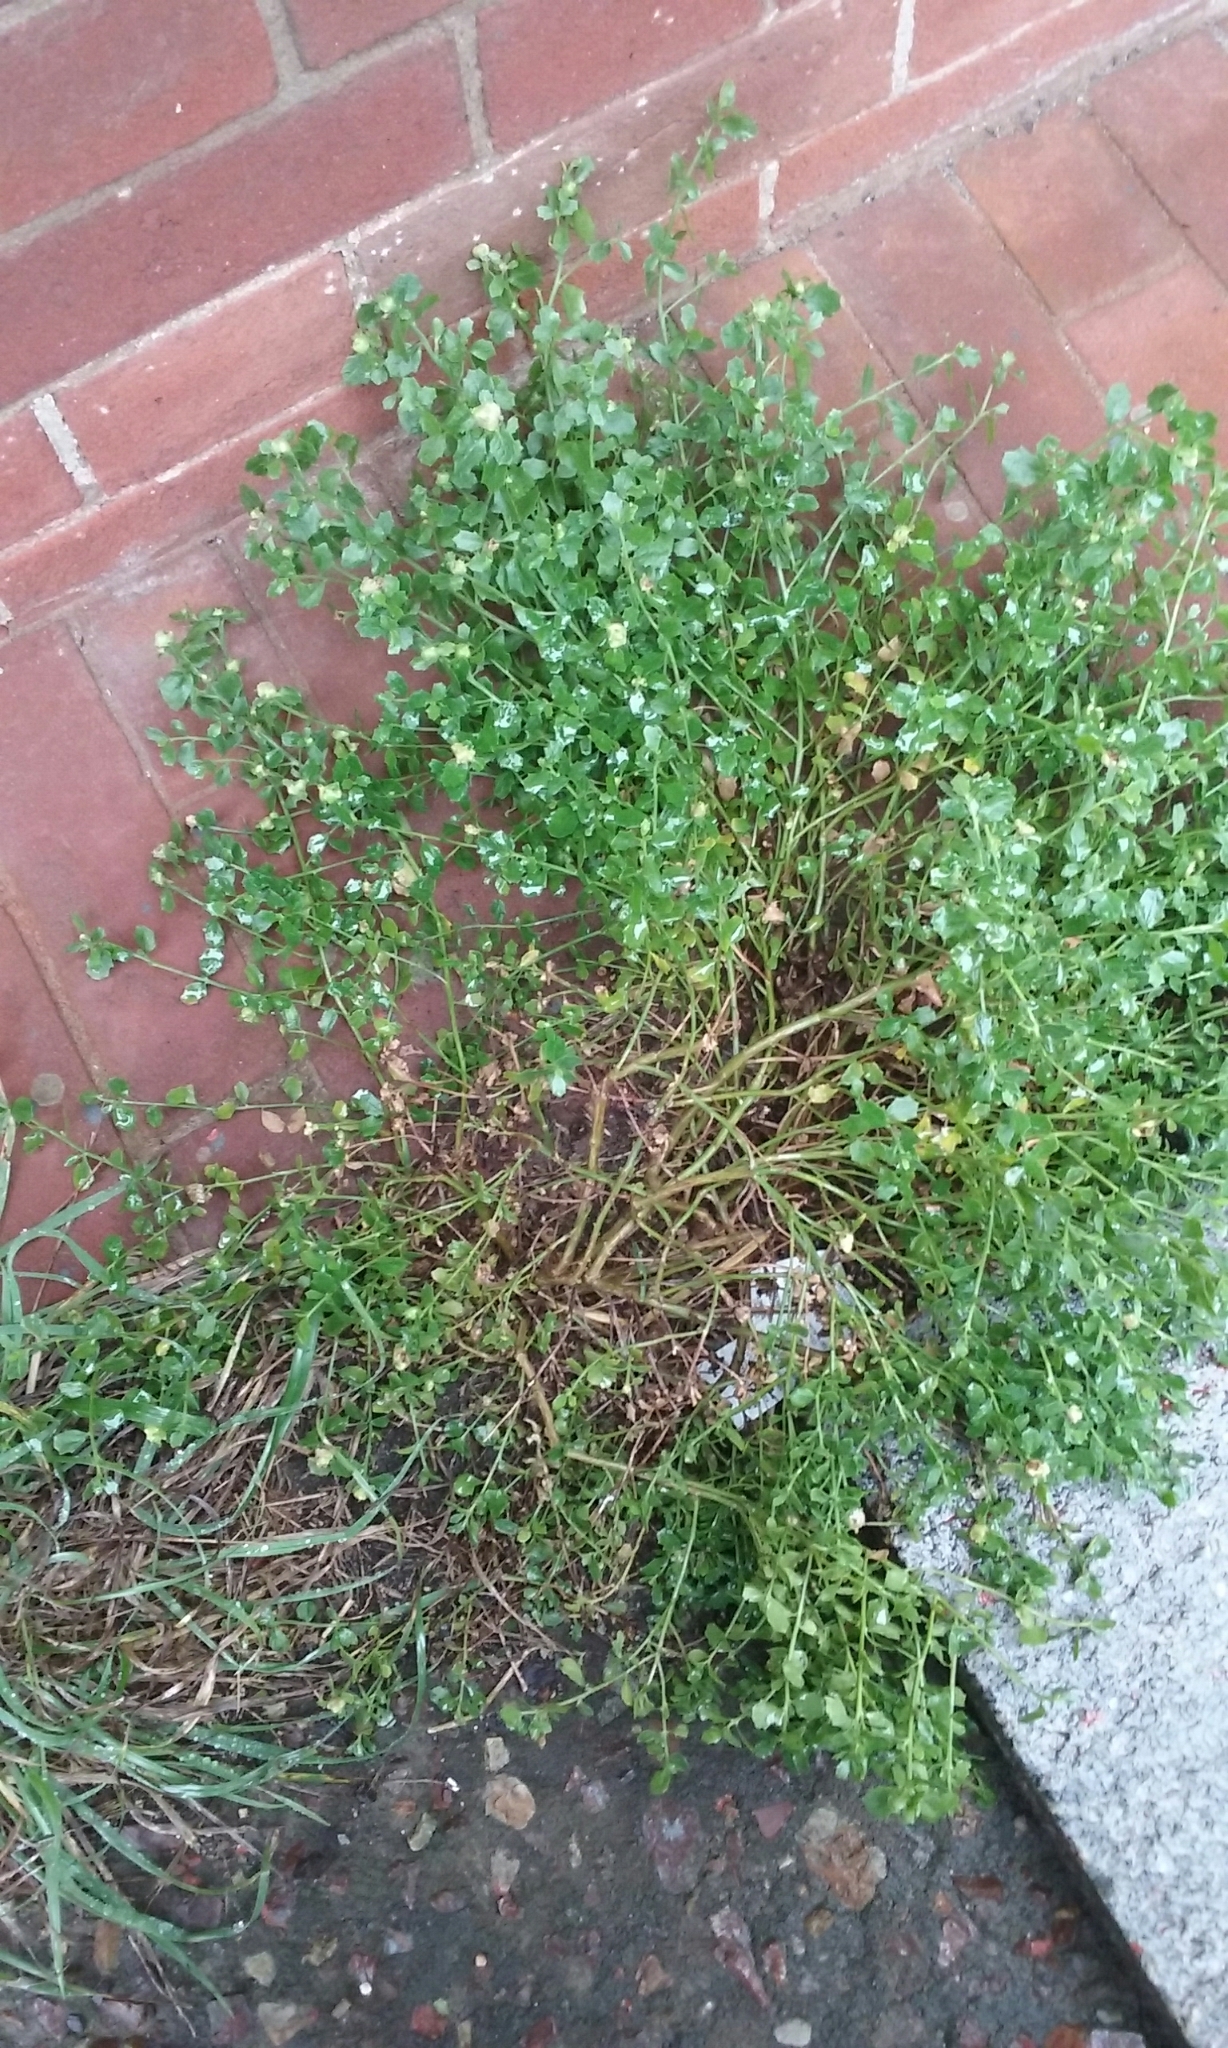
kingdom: Plantae
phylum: Tracheophyta
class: Magnoliopsida
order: Asterales
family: Asteraceae
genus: Baccharis
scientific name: Baccharis pilularis
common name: Coyotebrush
